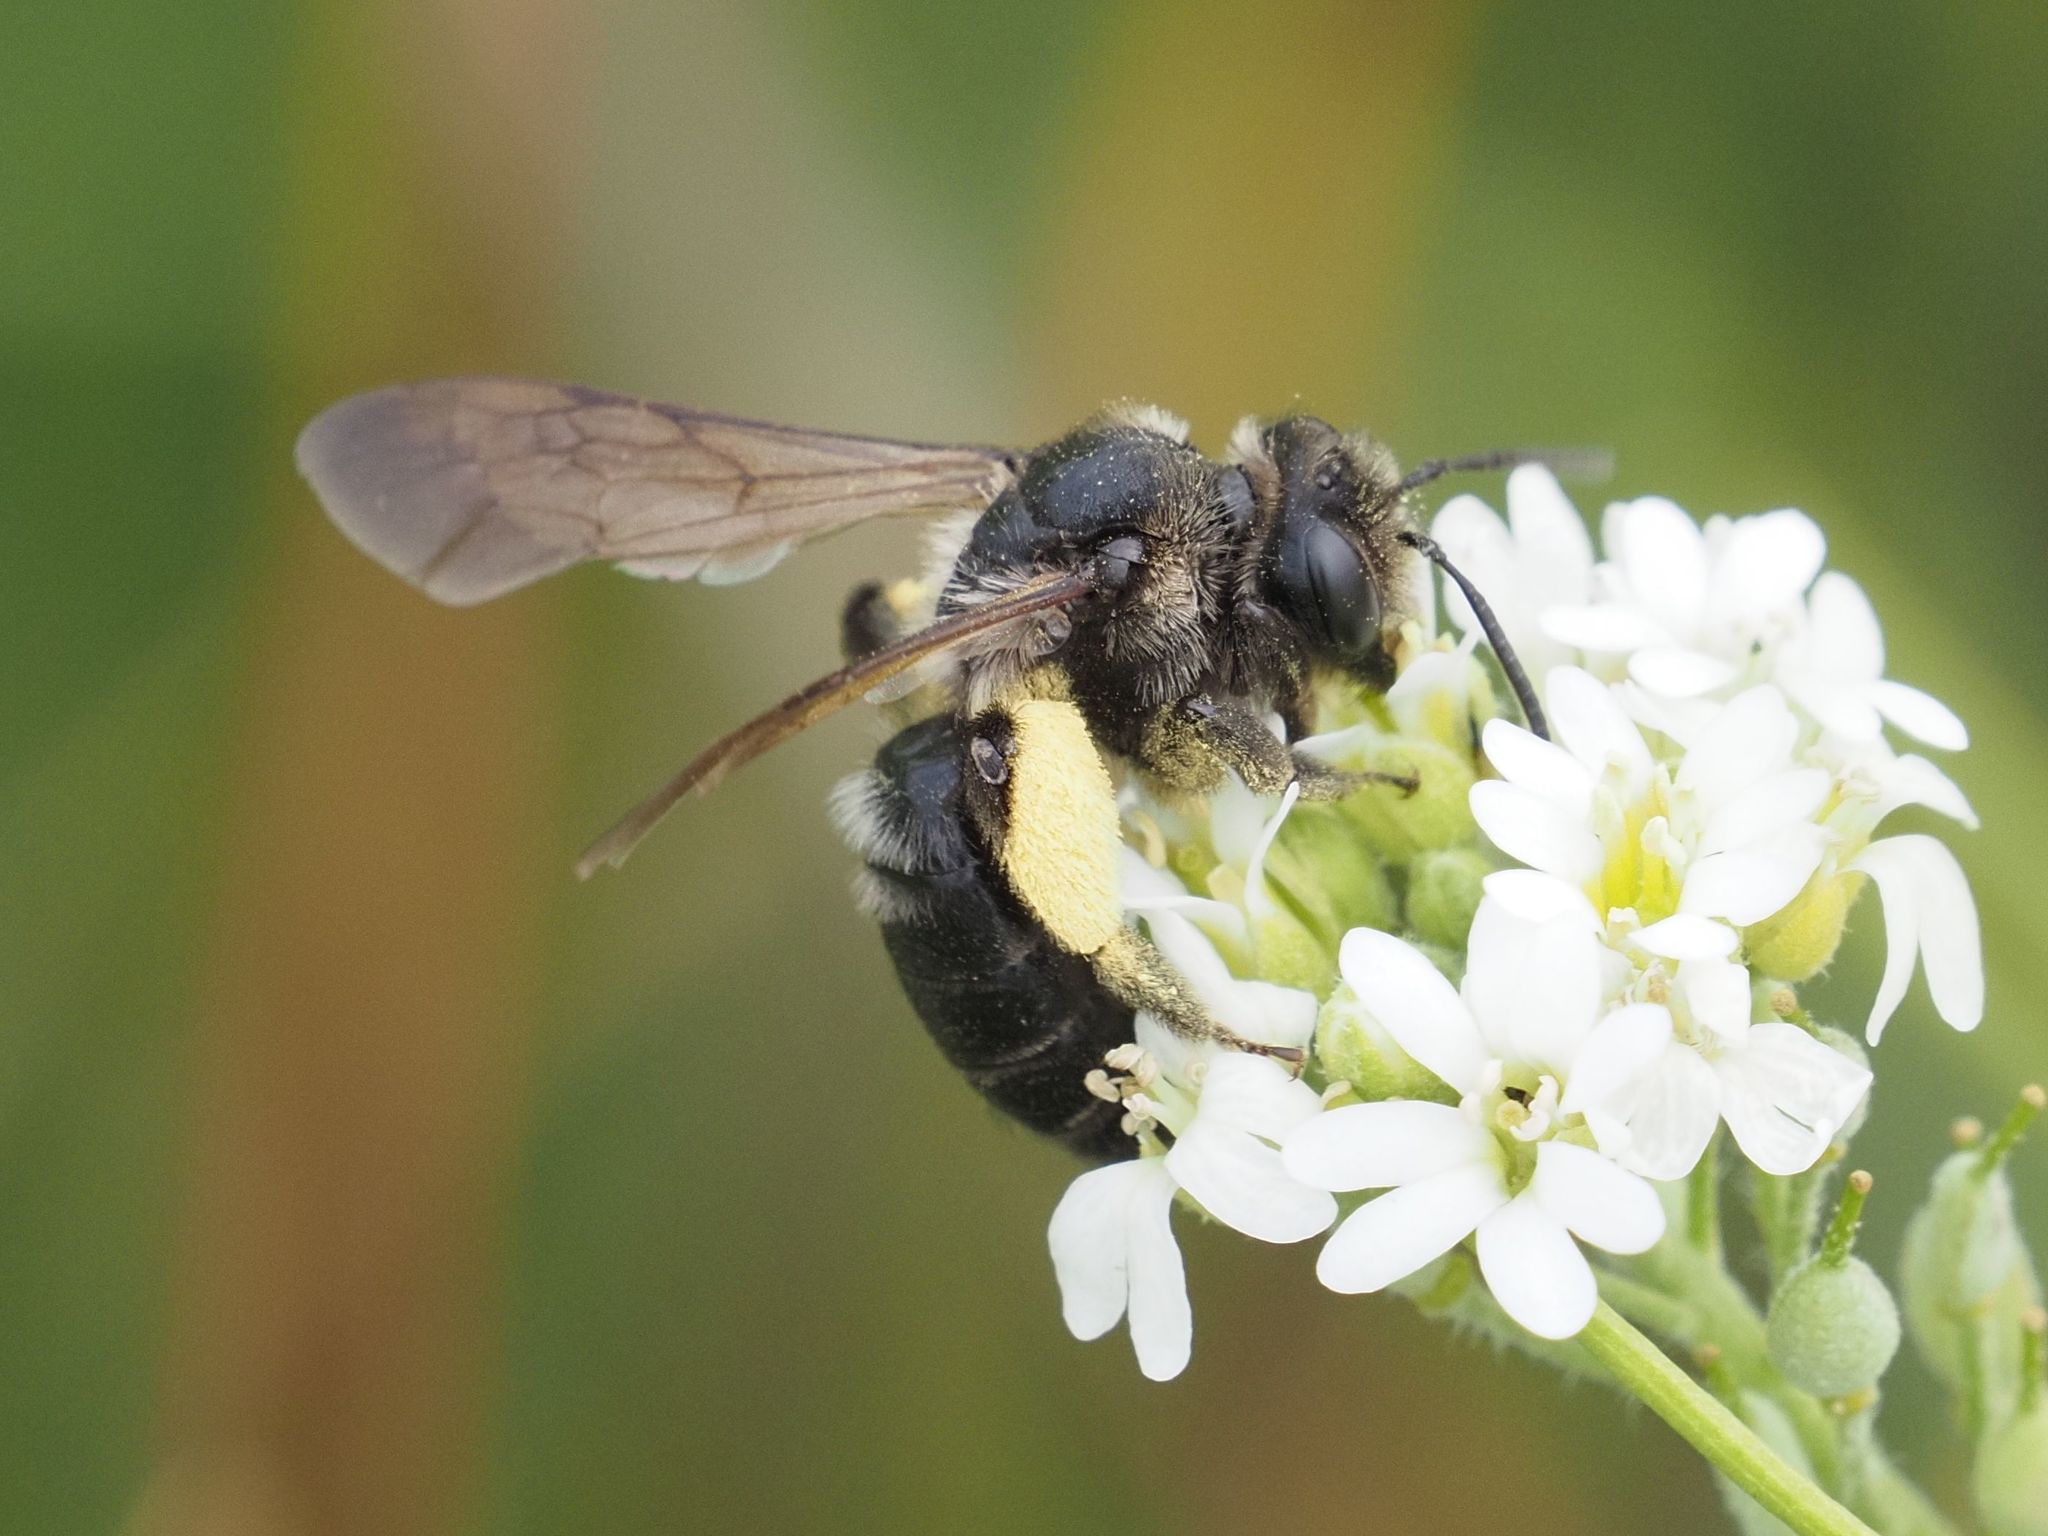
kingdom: Animalia
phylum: Arthropoda
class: Insecta
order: Hymenoptera
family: Andrenidae
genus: Andrena
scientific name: Andrena pilipes
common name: Black mining bee
